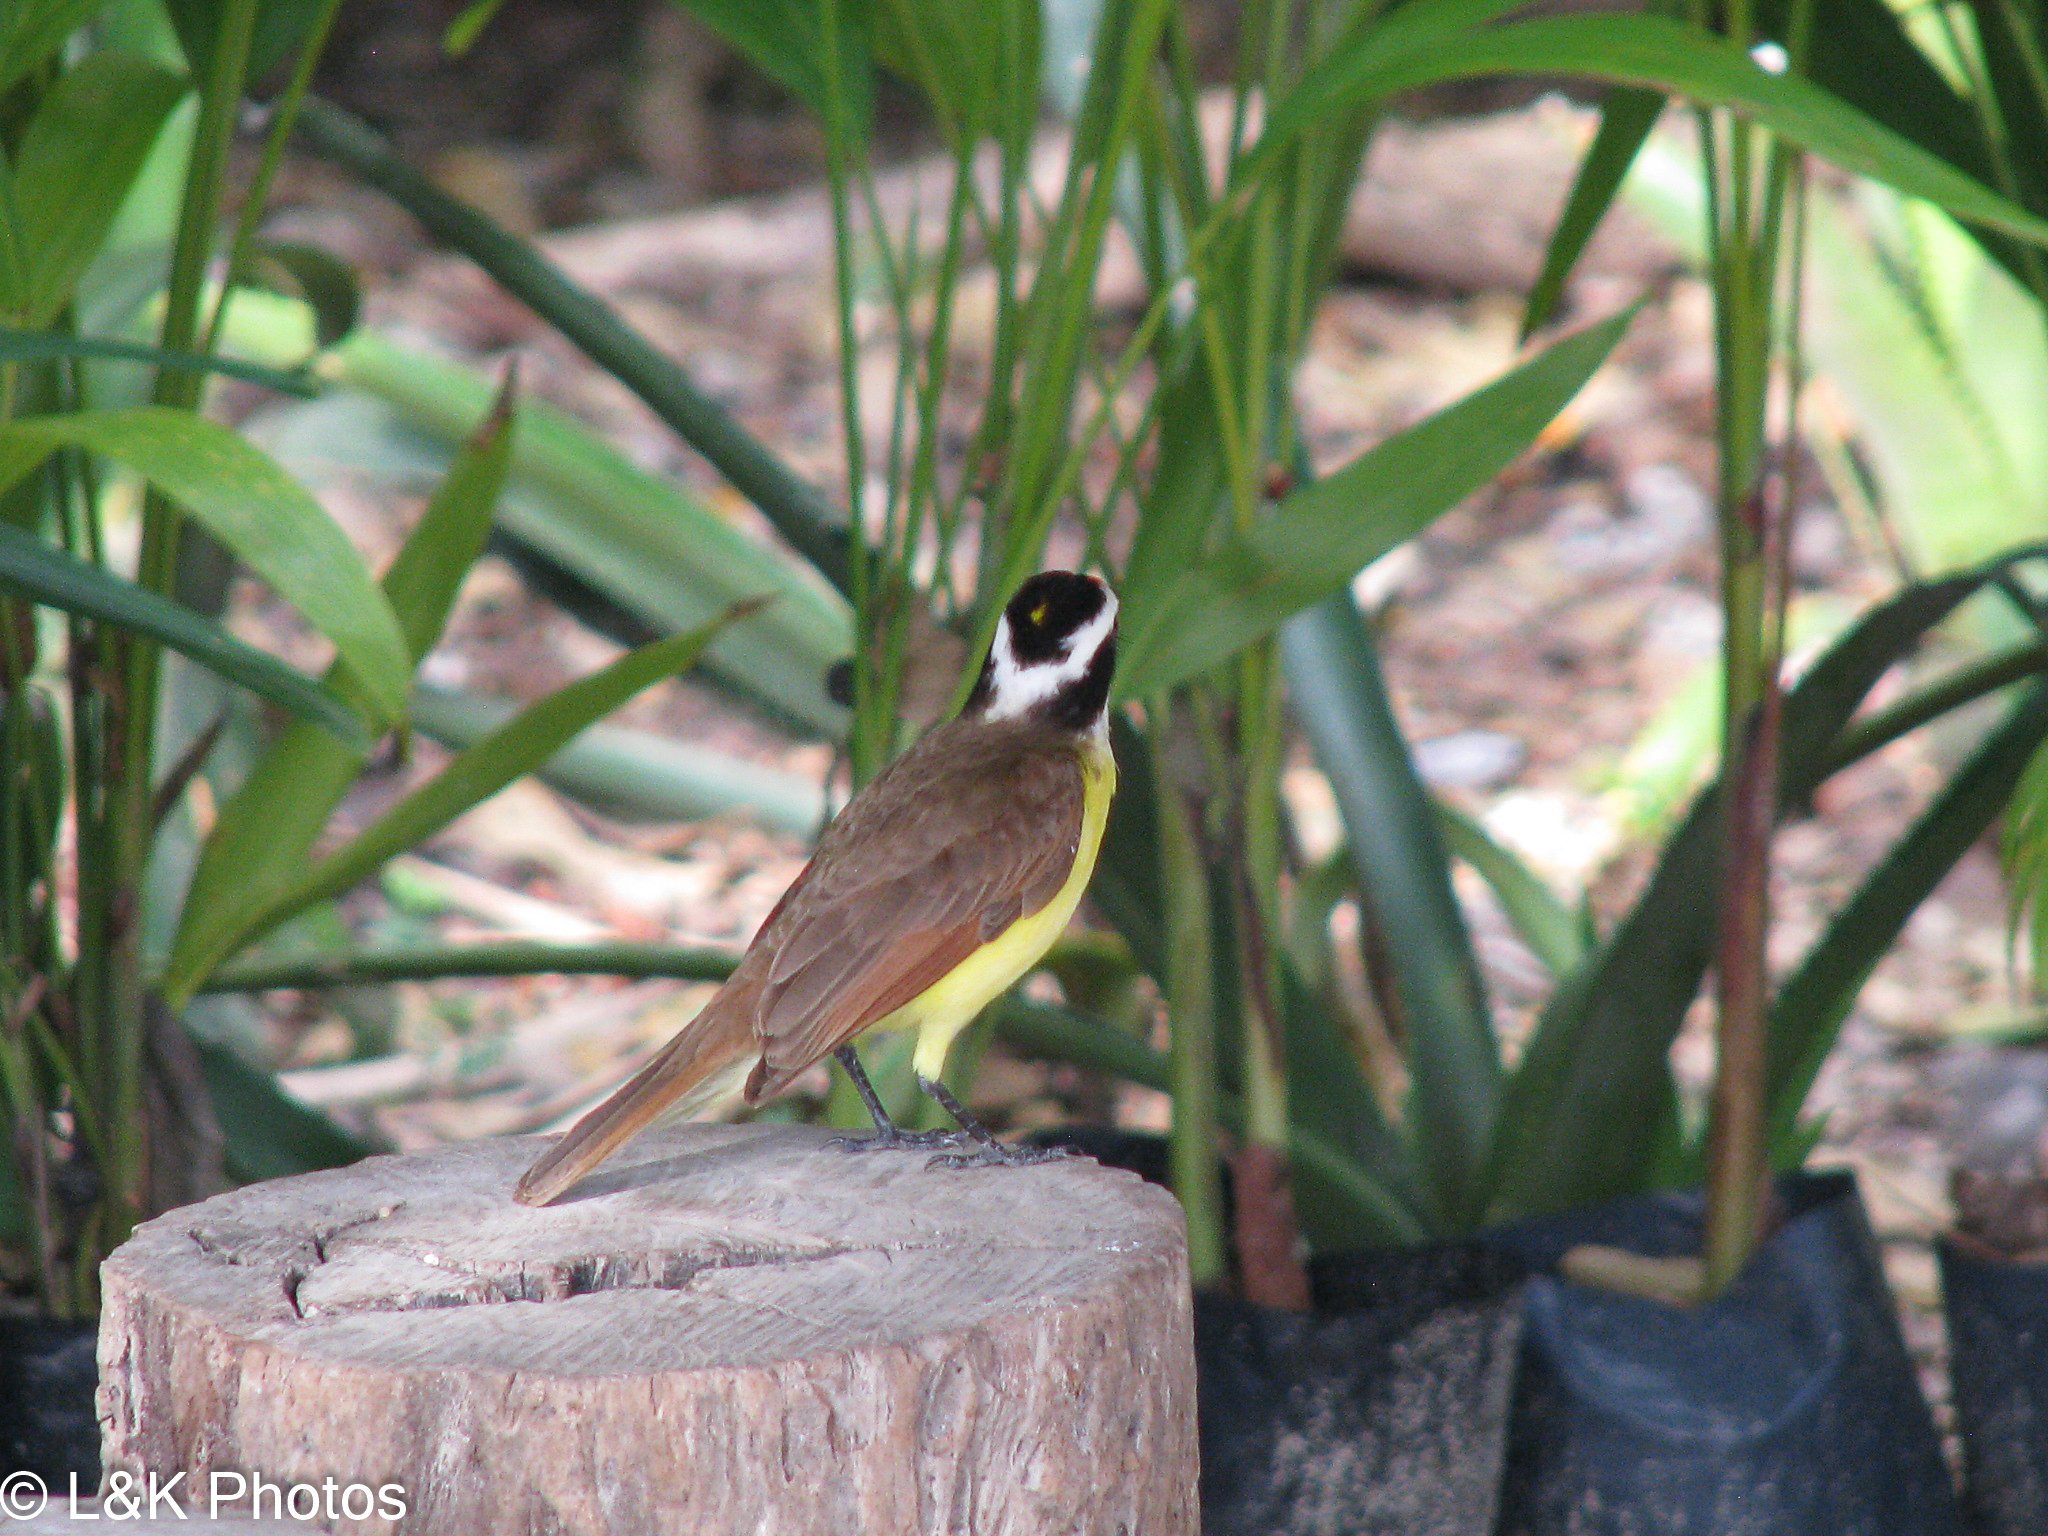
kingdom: Animalia
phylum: Chordata
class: Aves
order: Passeriformes
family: Tyrannidae
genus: Pitangus
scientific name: Pitangus sulphuratus
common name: Great kiskadee
